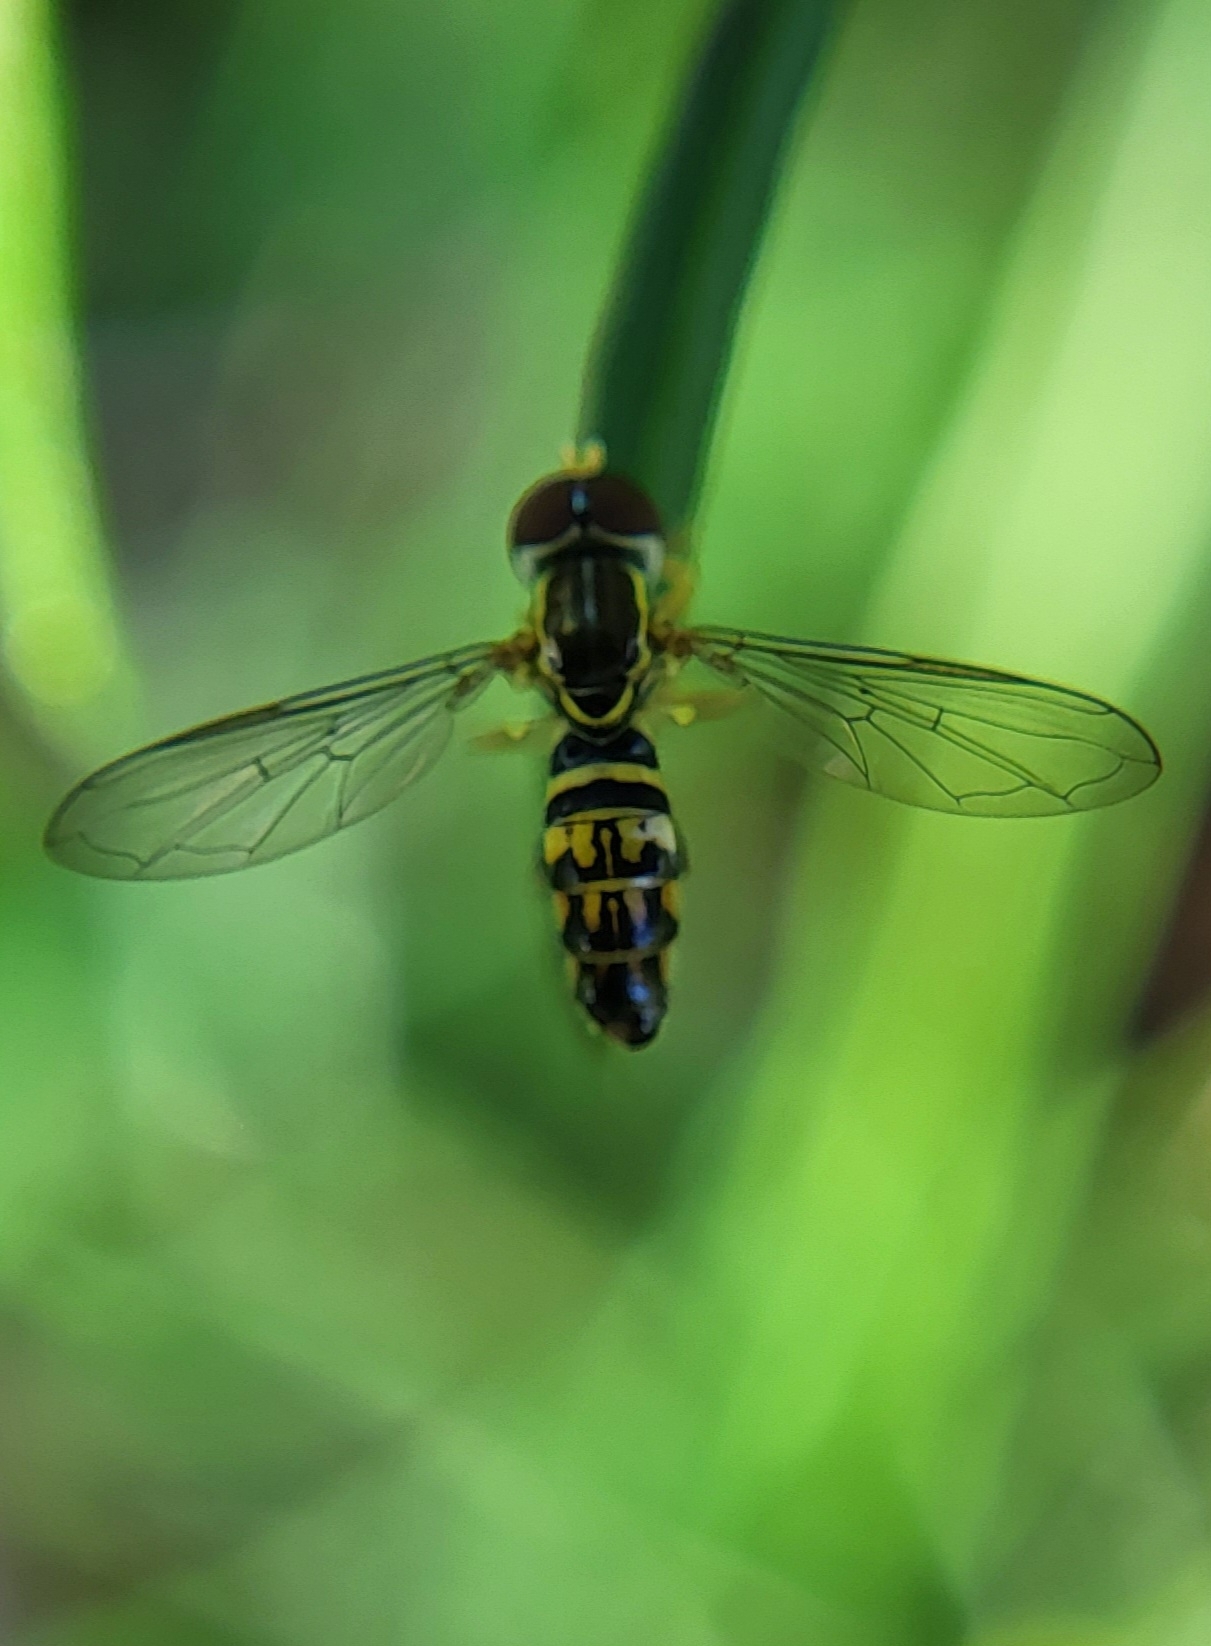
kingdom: Animalia
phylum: Arthropoda
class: Insecta
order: Diptera
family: Syrphidae
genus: Toxomerus
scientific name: Toxomerus geminatus
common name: Eastern calligrapher
